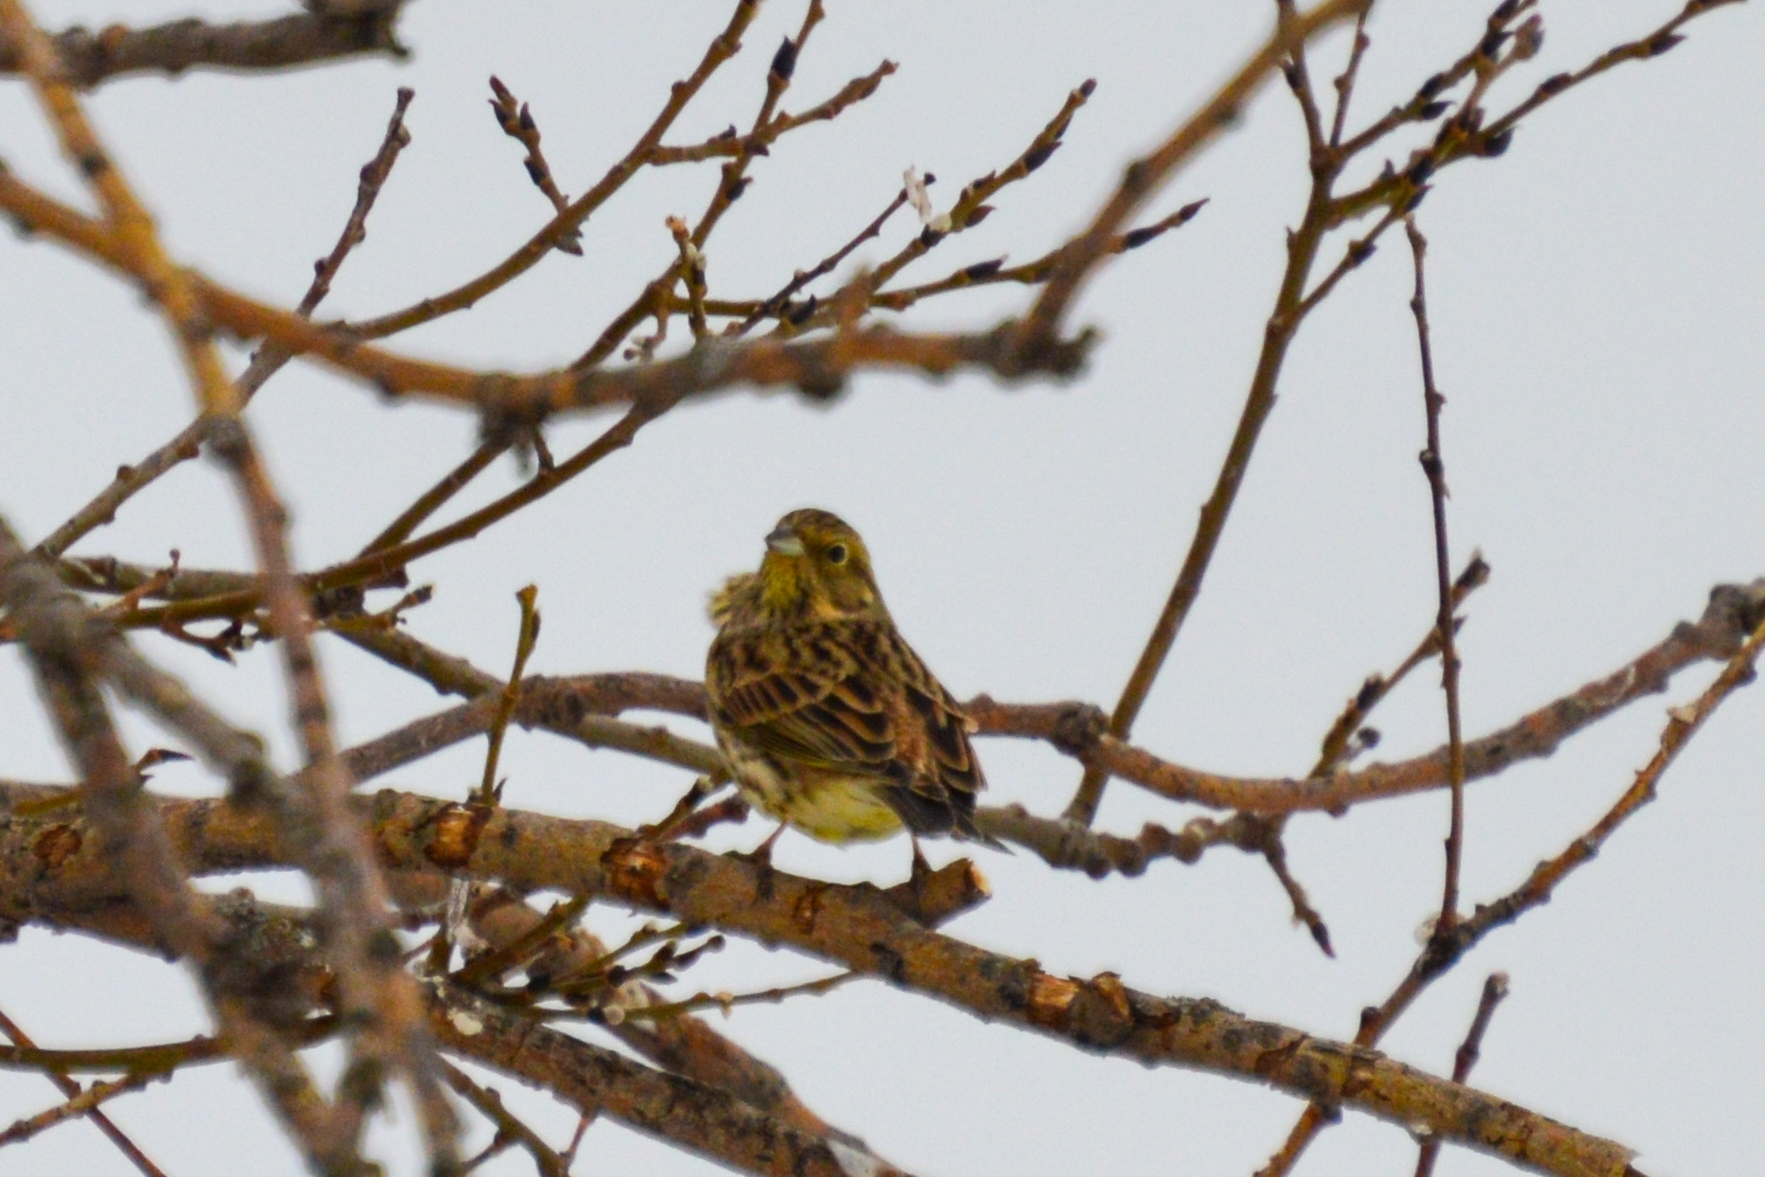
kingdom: Animalia
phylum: Chordata
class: Aves
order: Passeriformes
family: Emberizidae
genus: Emberiza
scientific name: Emberiza citrinella
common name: Yellowhammer
